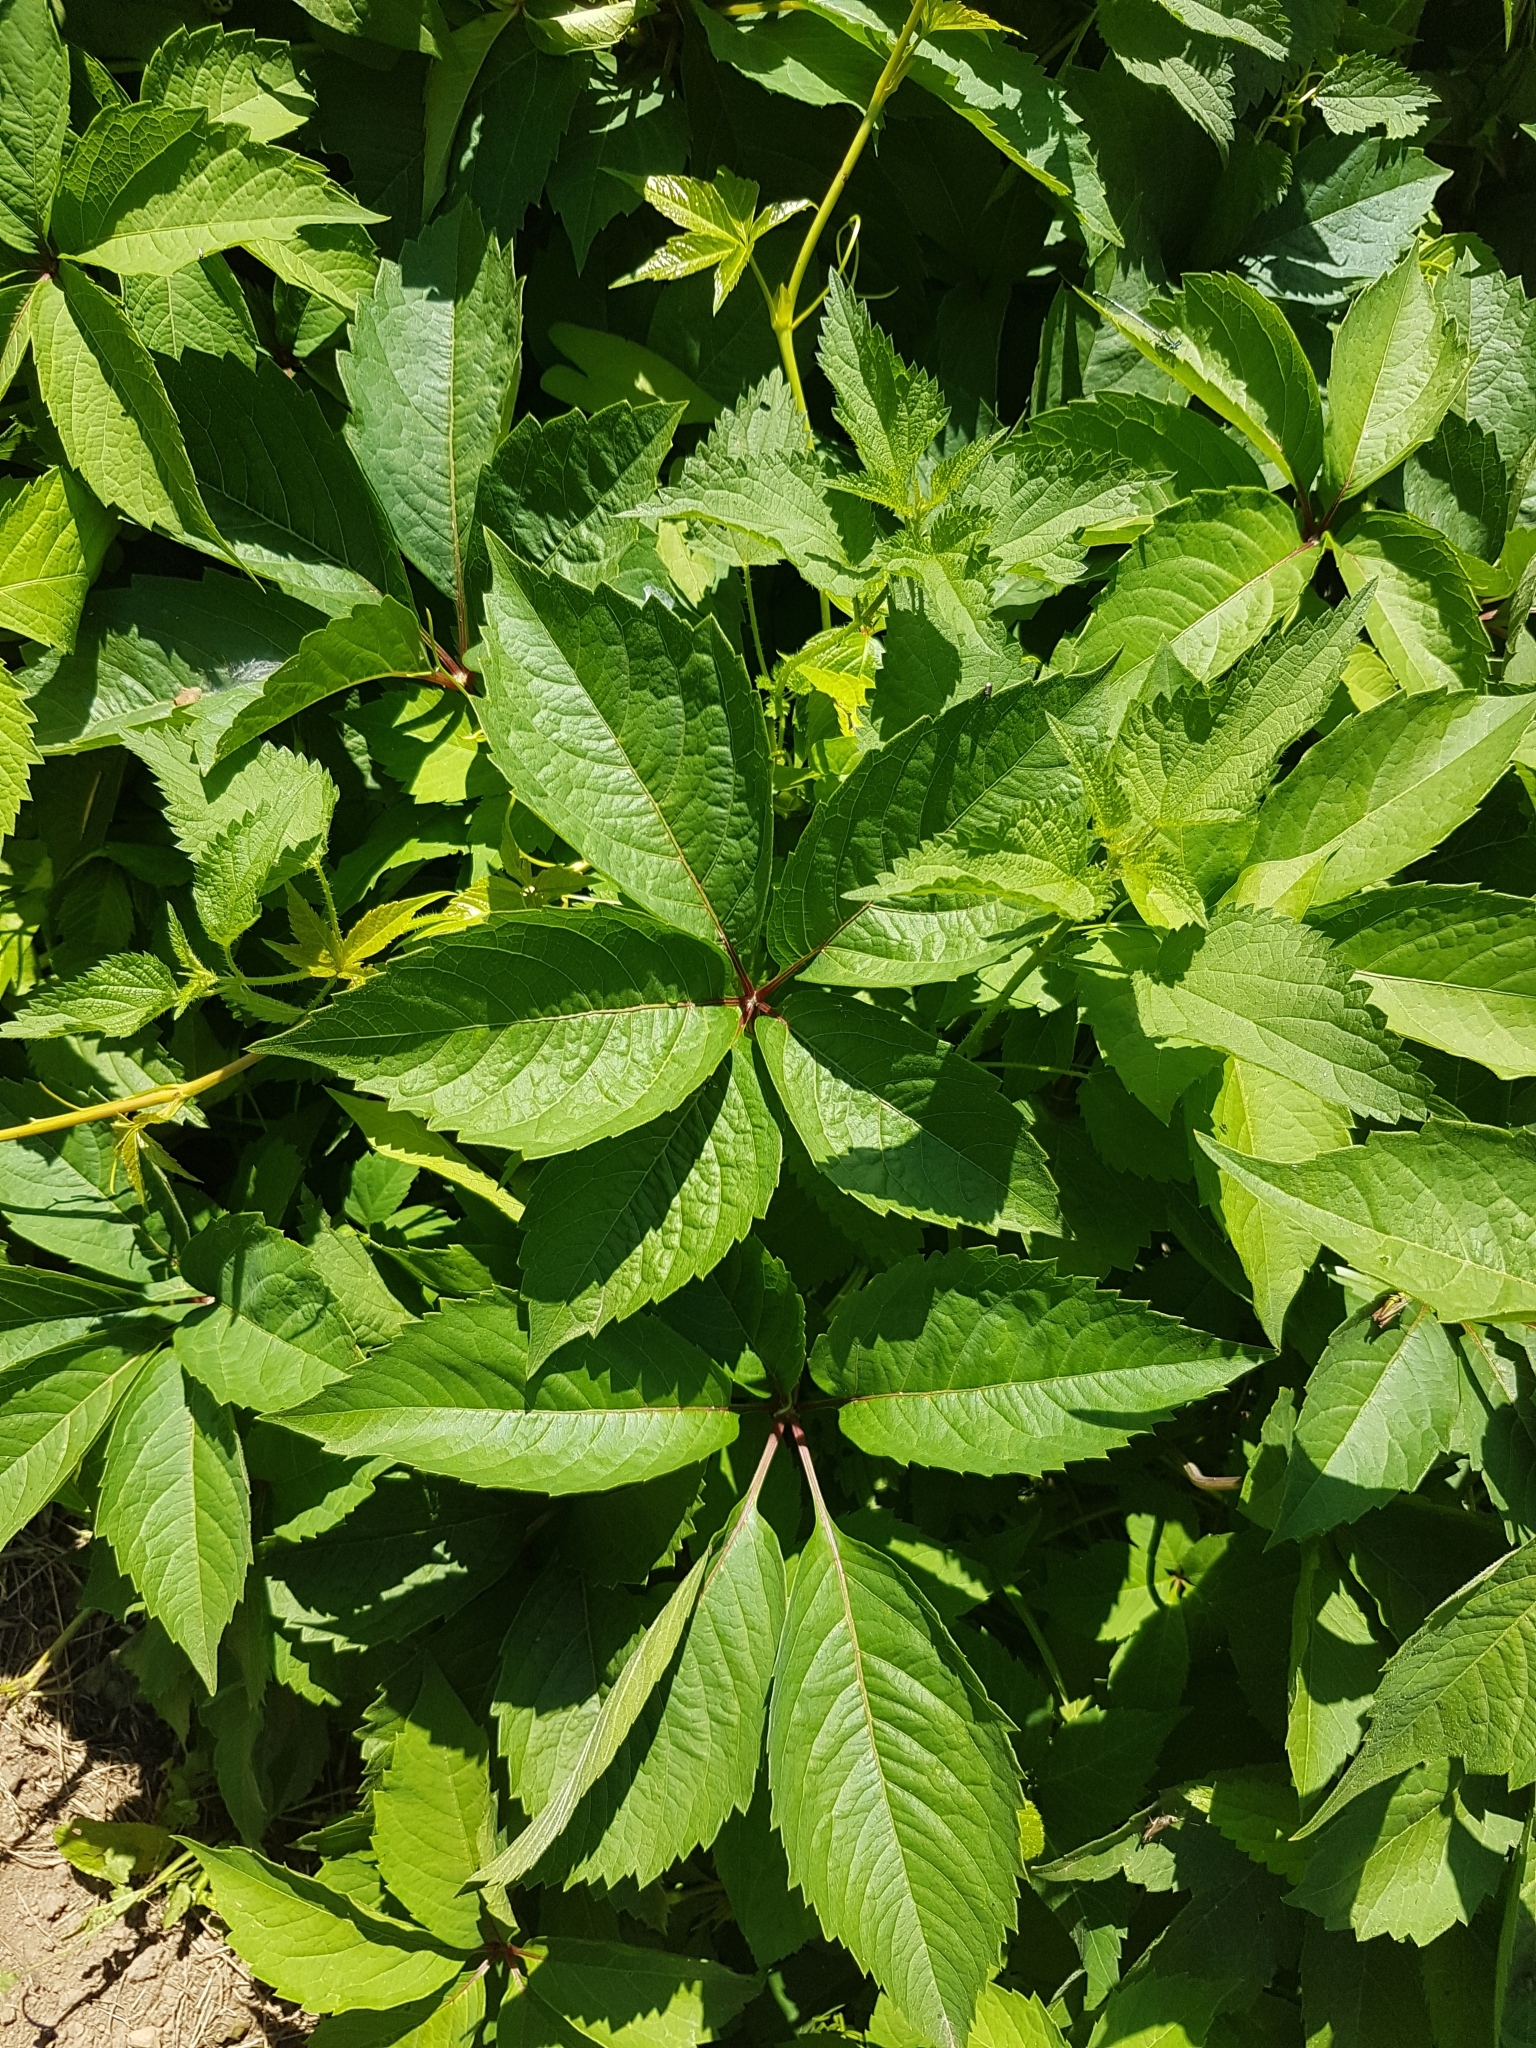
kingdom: Plantae
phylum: Tracheophyta
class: Magnoliopsida
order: Vitales
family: Vitaceae
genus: Parthenocissus
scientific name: Parthenocissus quinquefolia
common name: Virginia-creeper
